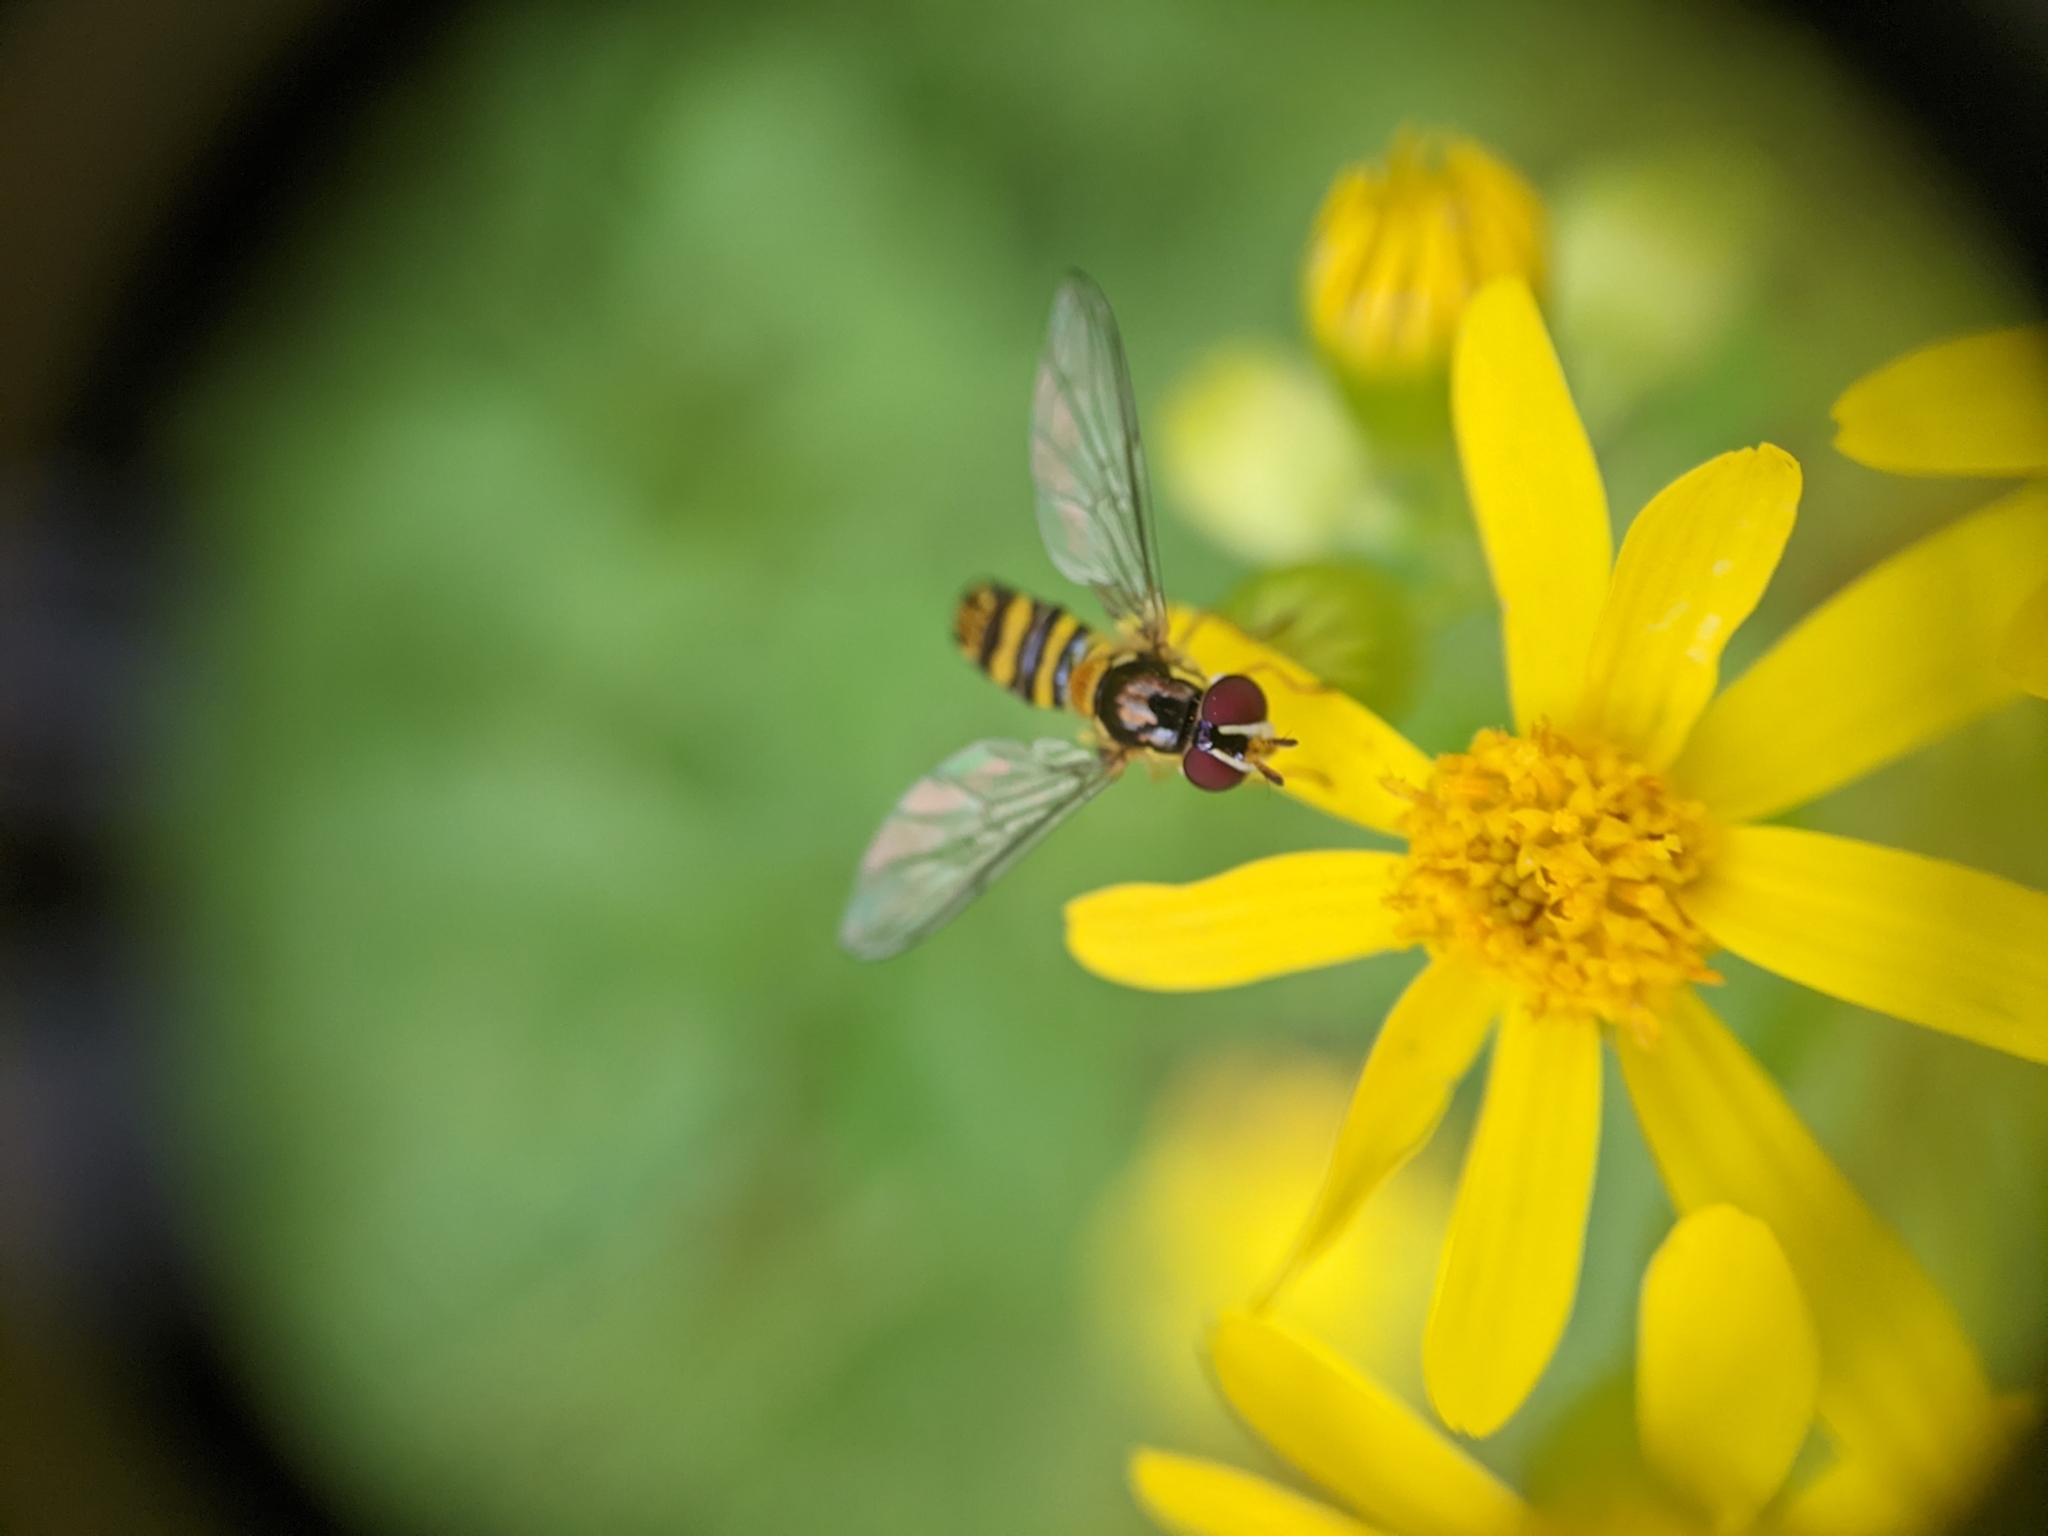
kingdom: Animalia
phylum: Arthropoda
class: Insecta
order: Diptera
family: Syrphidae
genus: Allograpta
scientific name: Allograpta obliqua
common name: Common oblique syrphid
